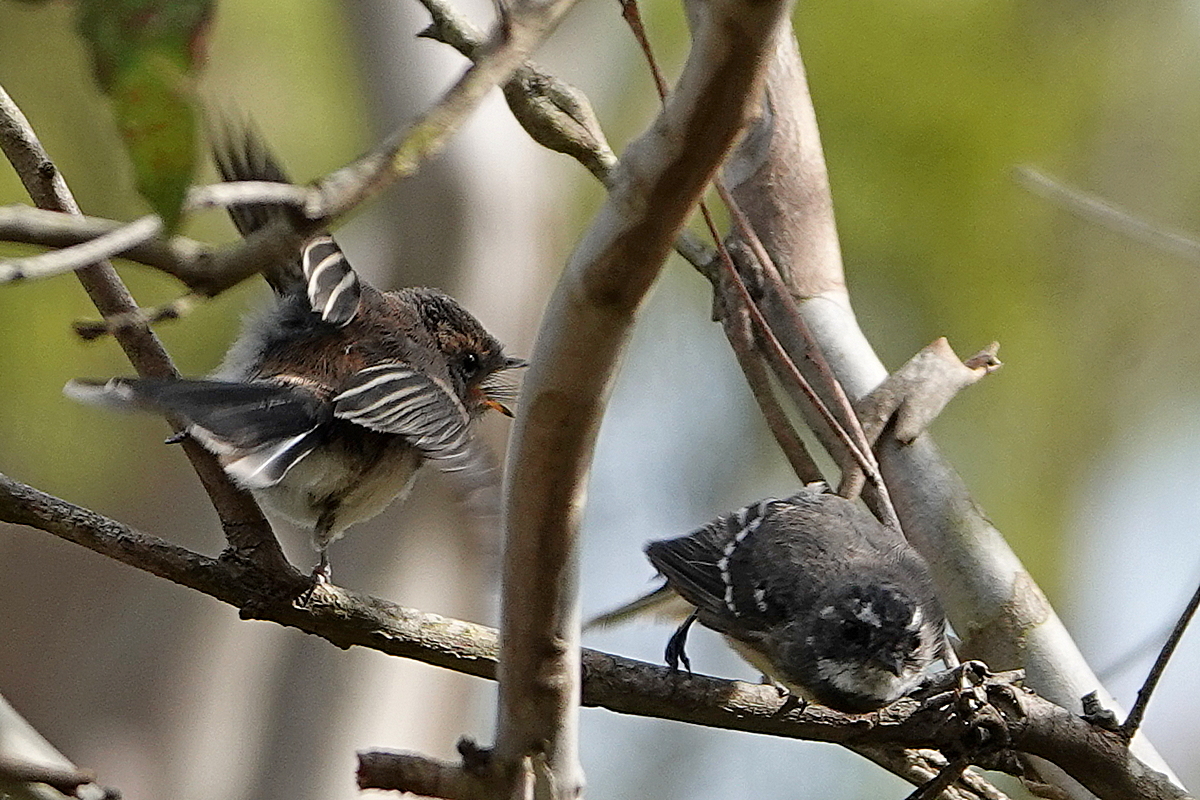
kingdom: Animalia
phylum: Chordata
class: Aves
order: Passeriformes
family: Rhipiduridae
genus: Rhipidura
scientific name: Rhipidura albiscapa
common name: Grey fantail
